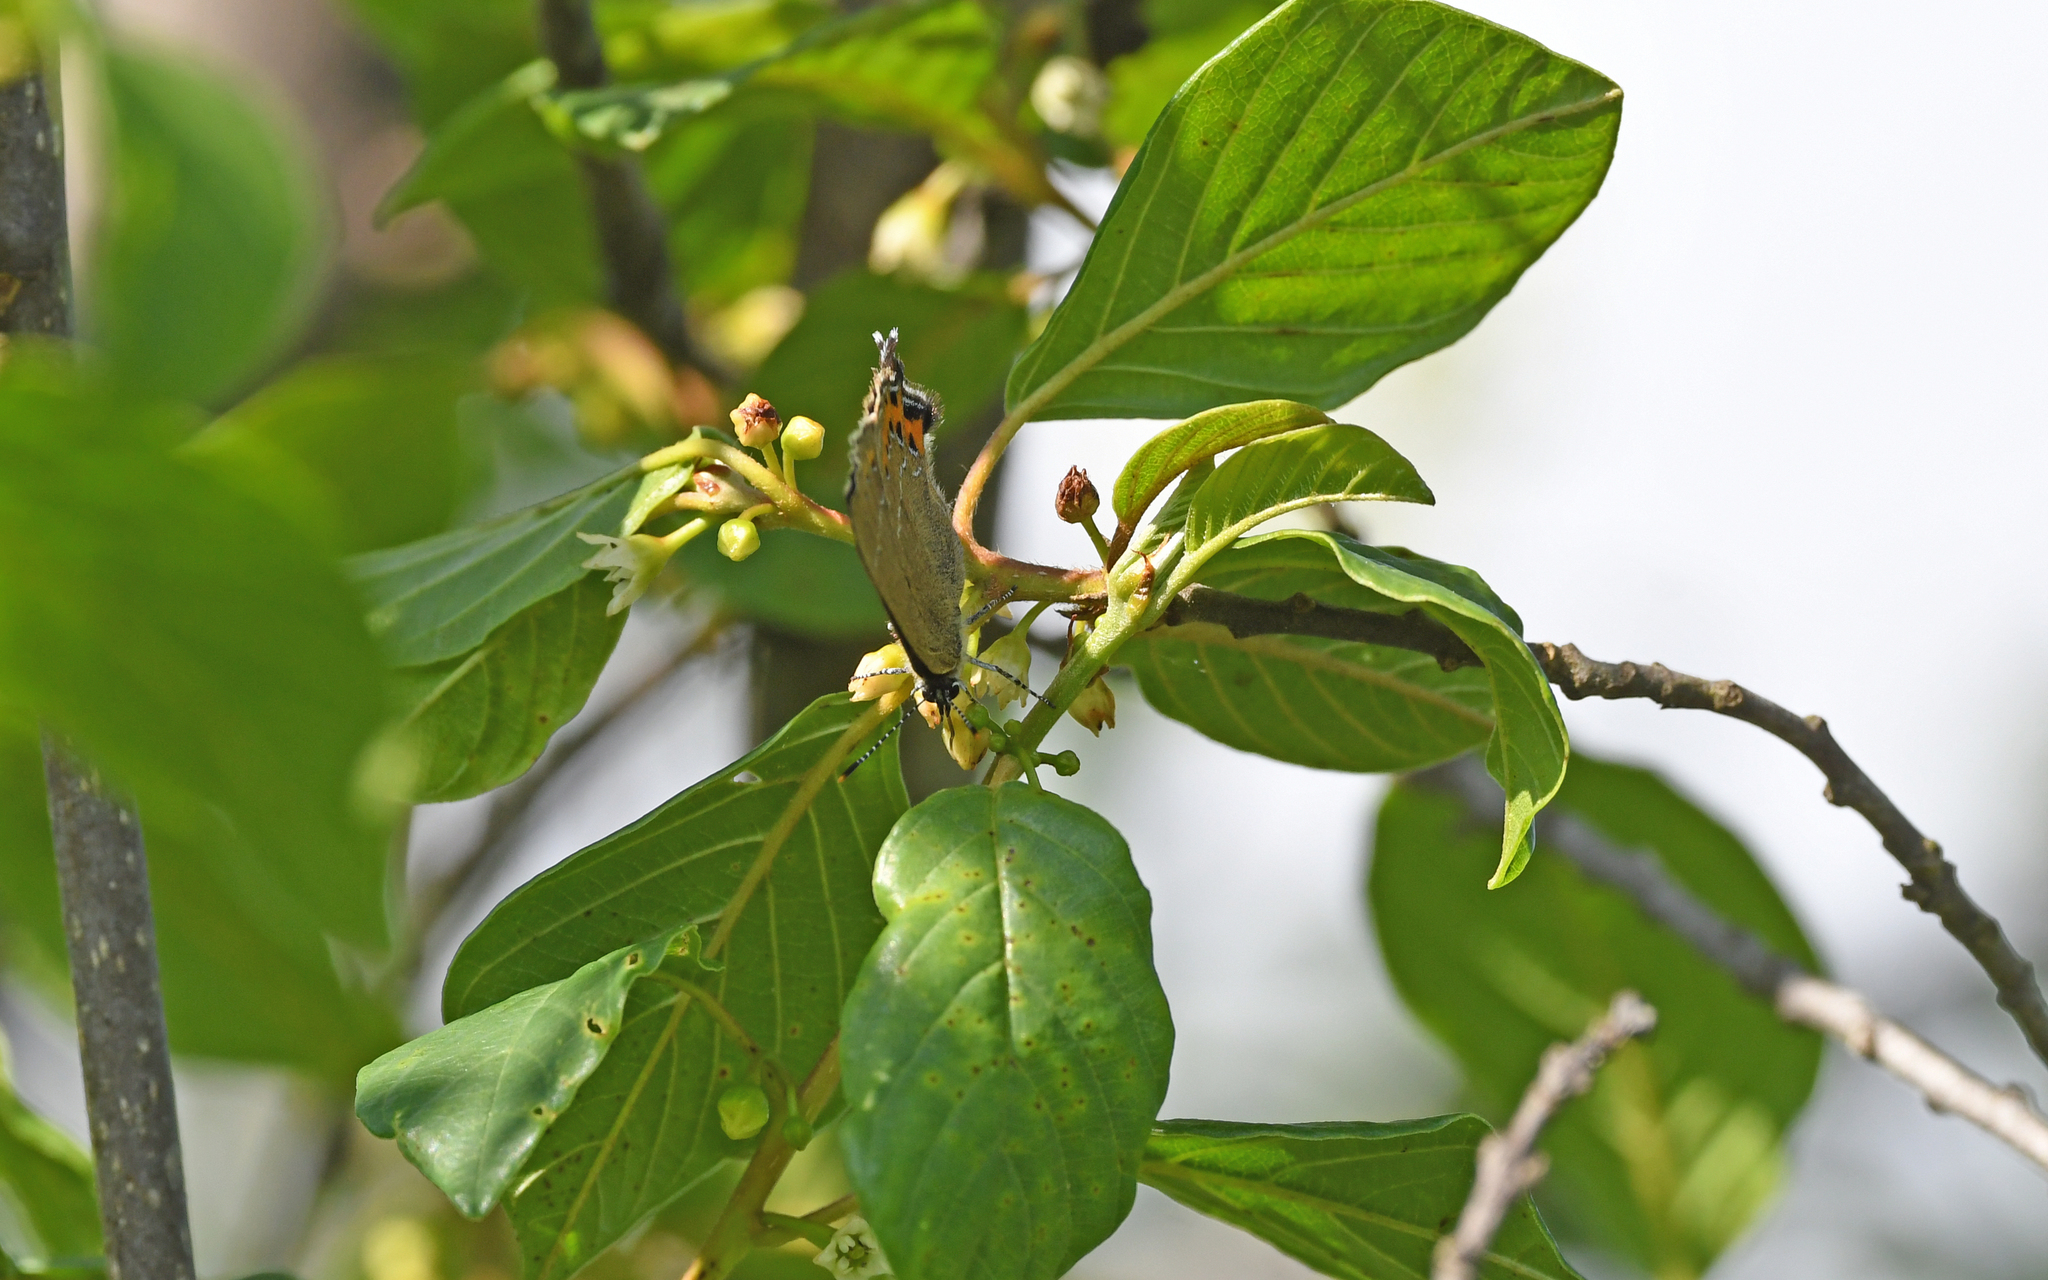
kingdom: Animalia
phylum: Arthropoda
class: Insecta
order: Lepidoptera
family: Lycaenidae
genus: Fixsenia
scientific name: Fixsenia pruni
